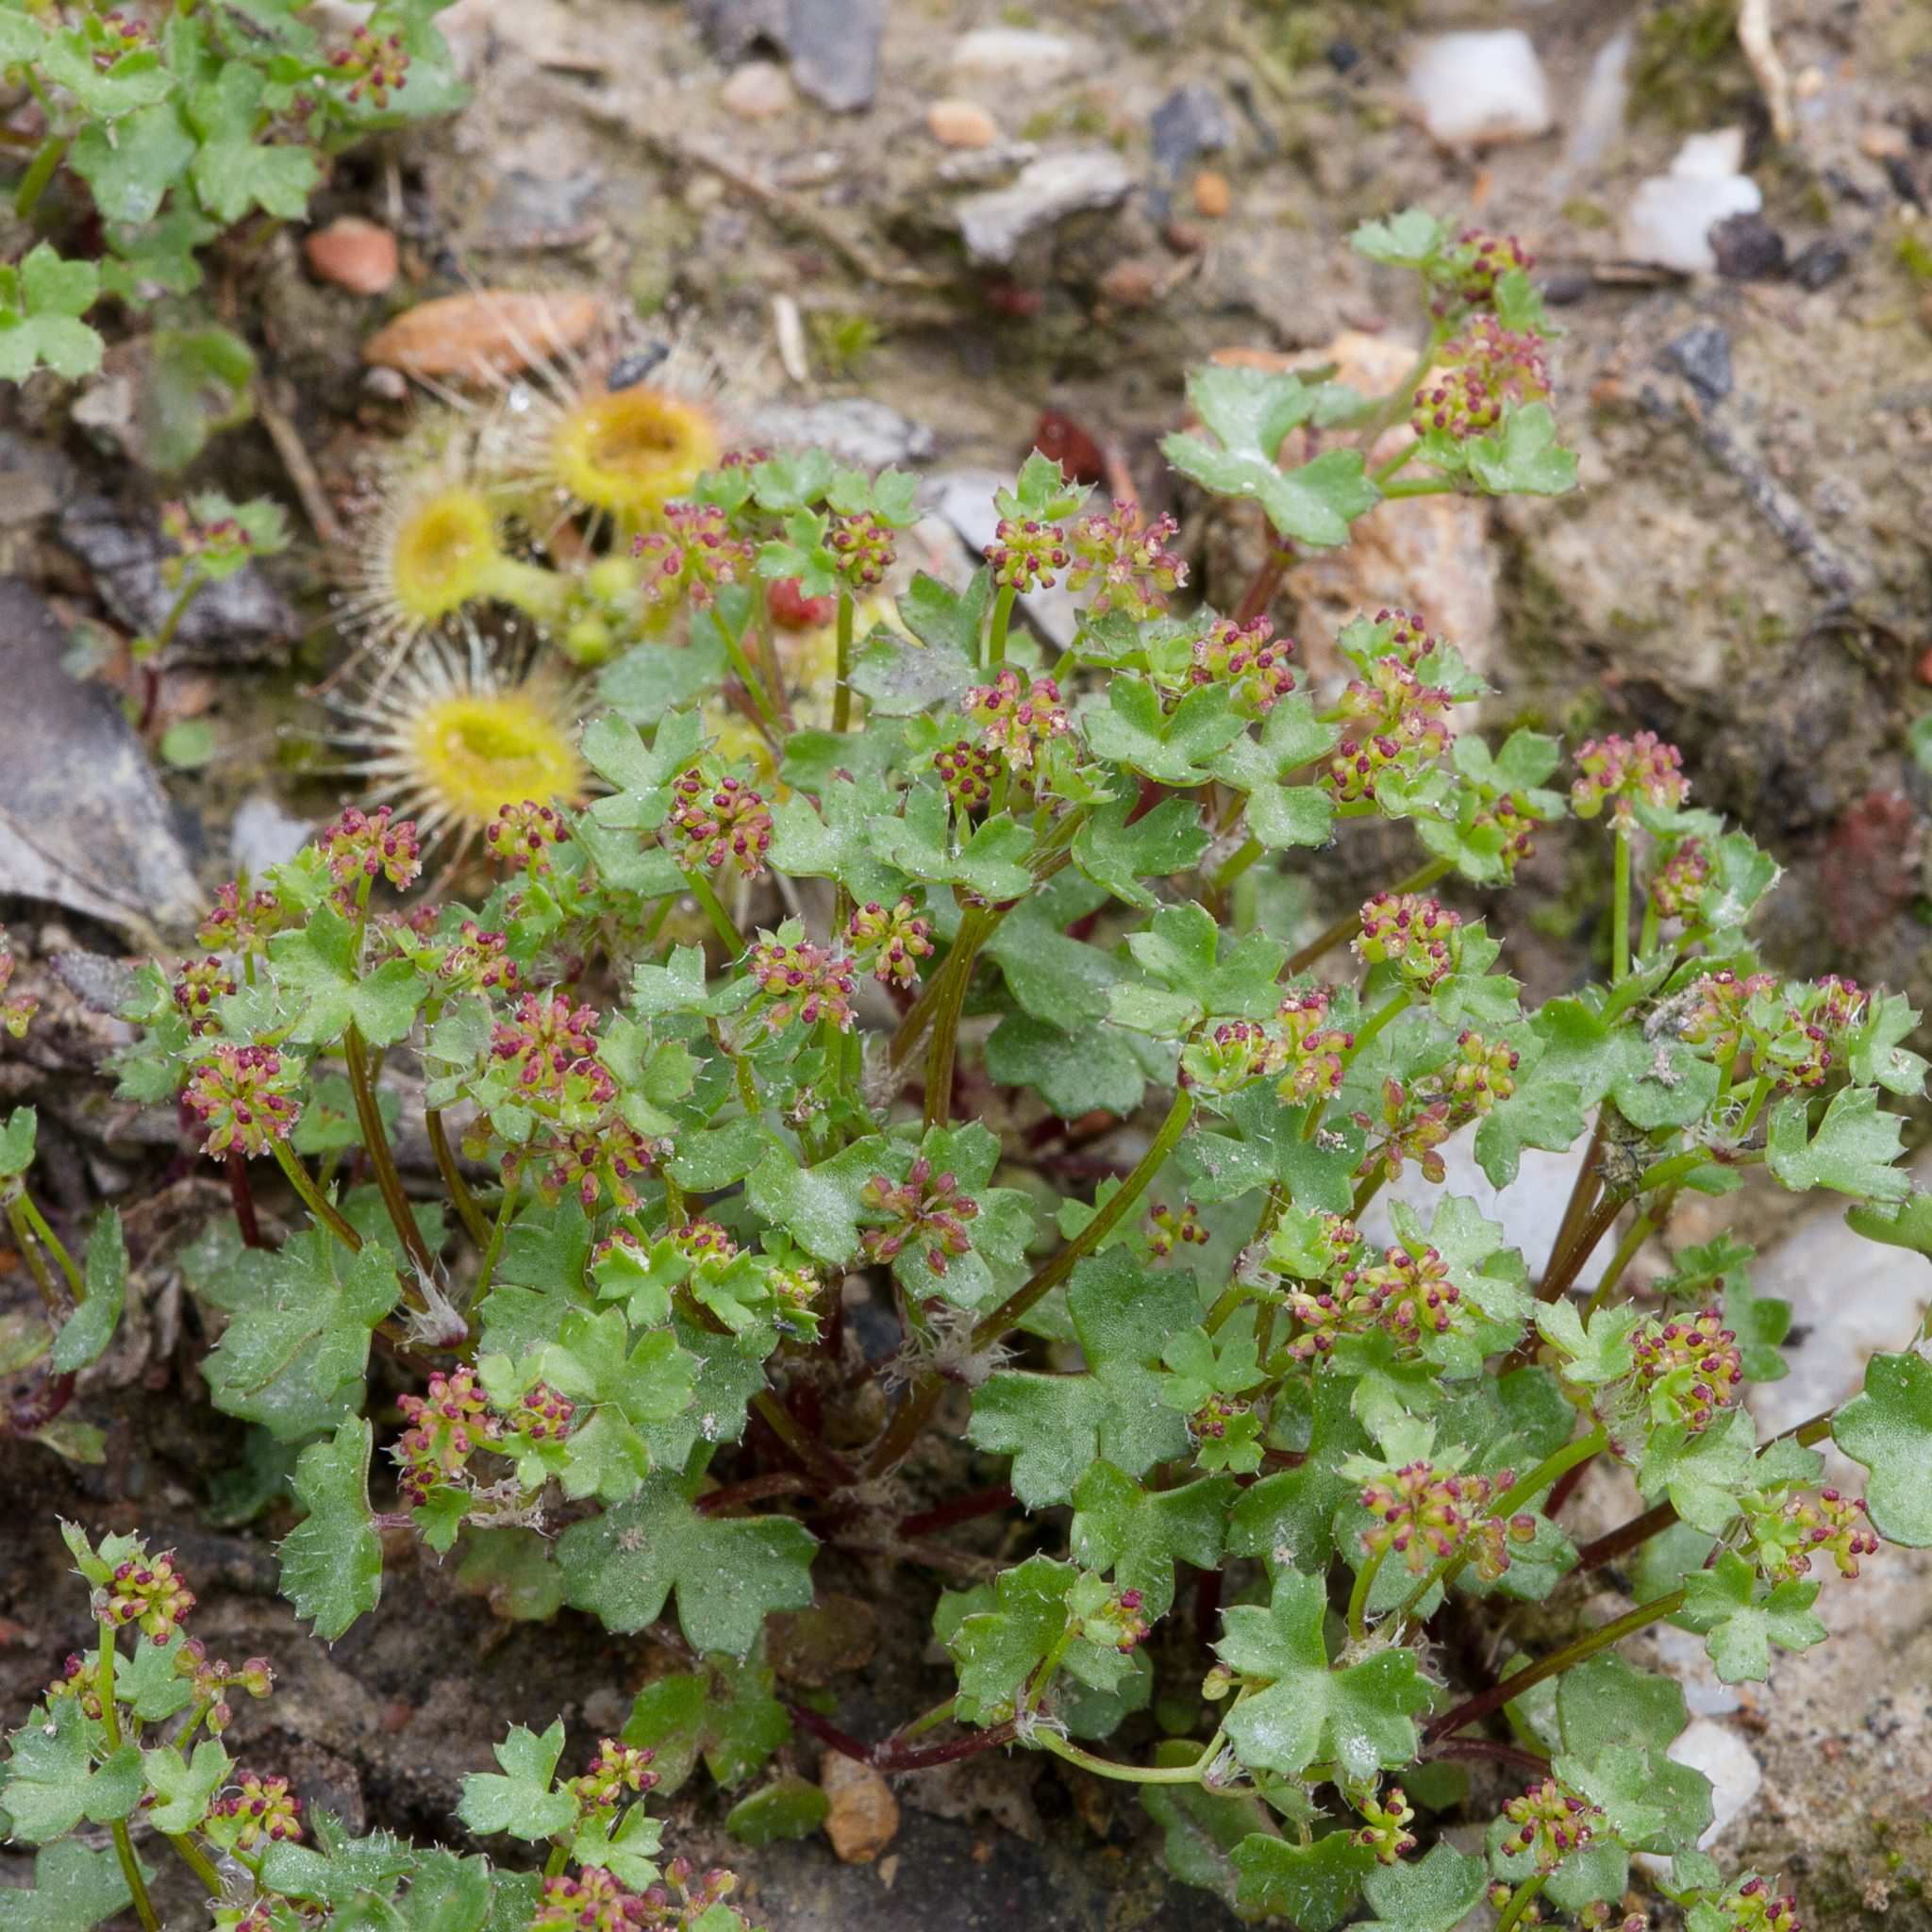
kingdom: Plantae
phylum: Tracheophyta
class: Magnoliopsida
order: Apiales
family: Araliaceae
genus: Hydrocotyle
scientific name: Hydrocotyle callicarpa
